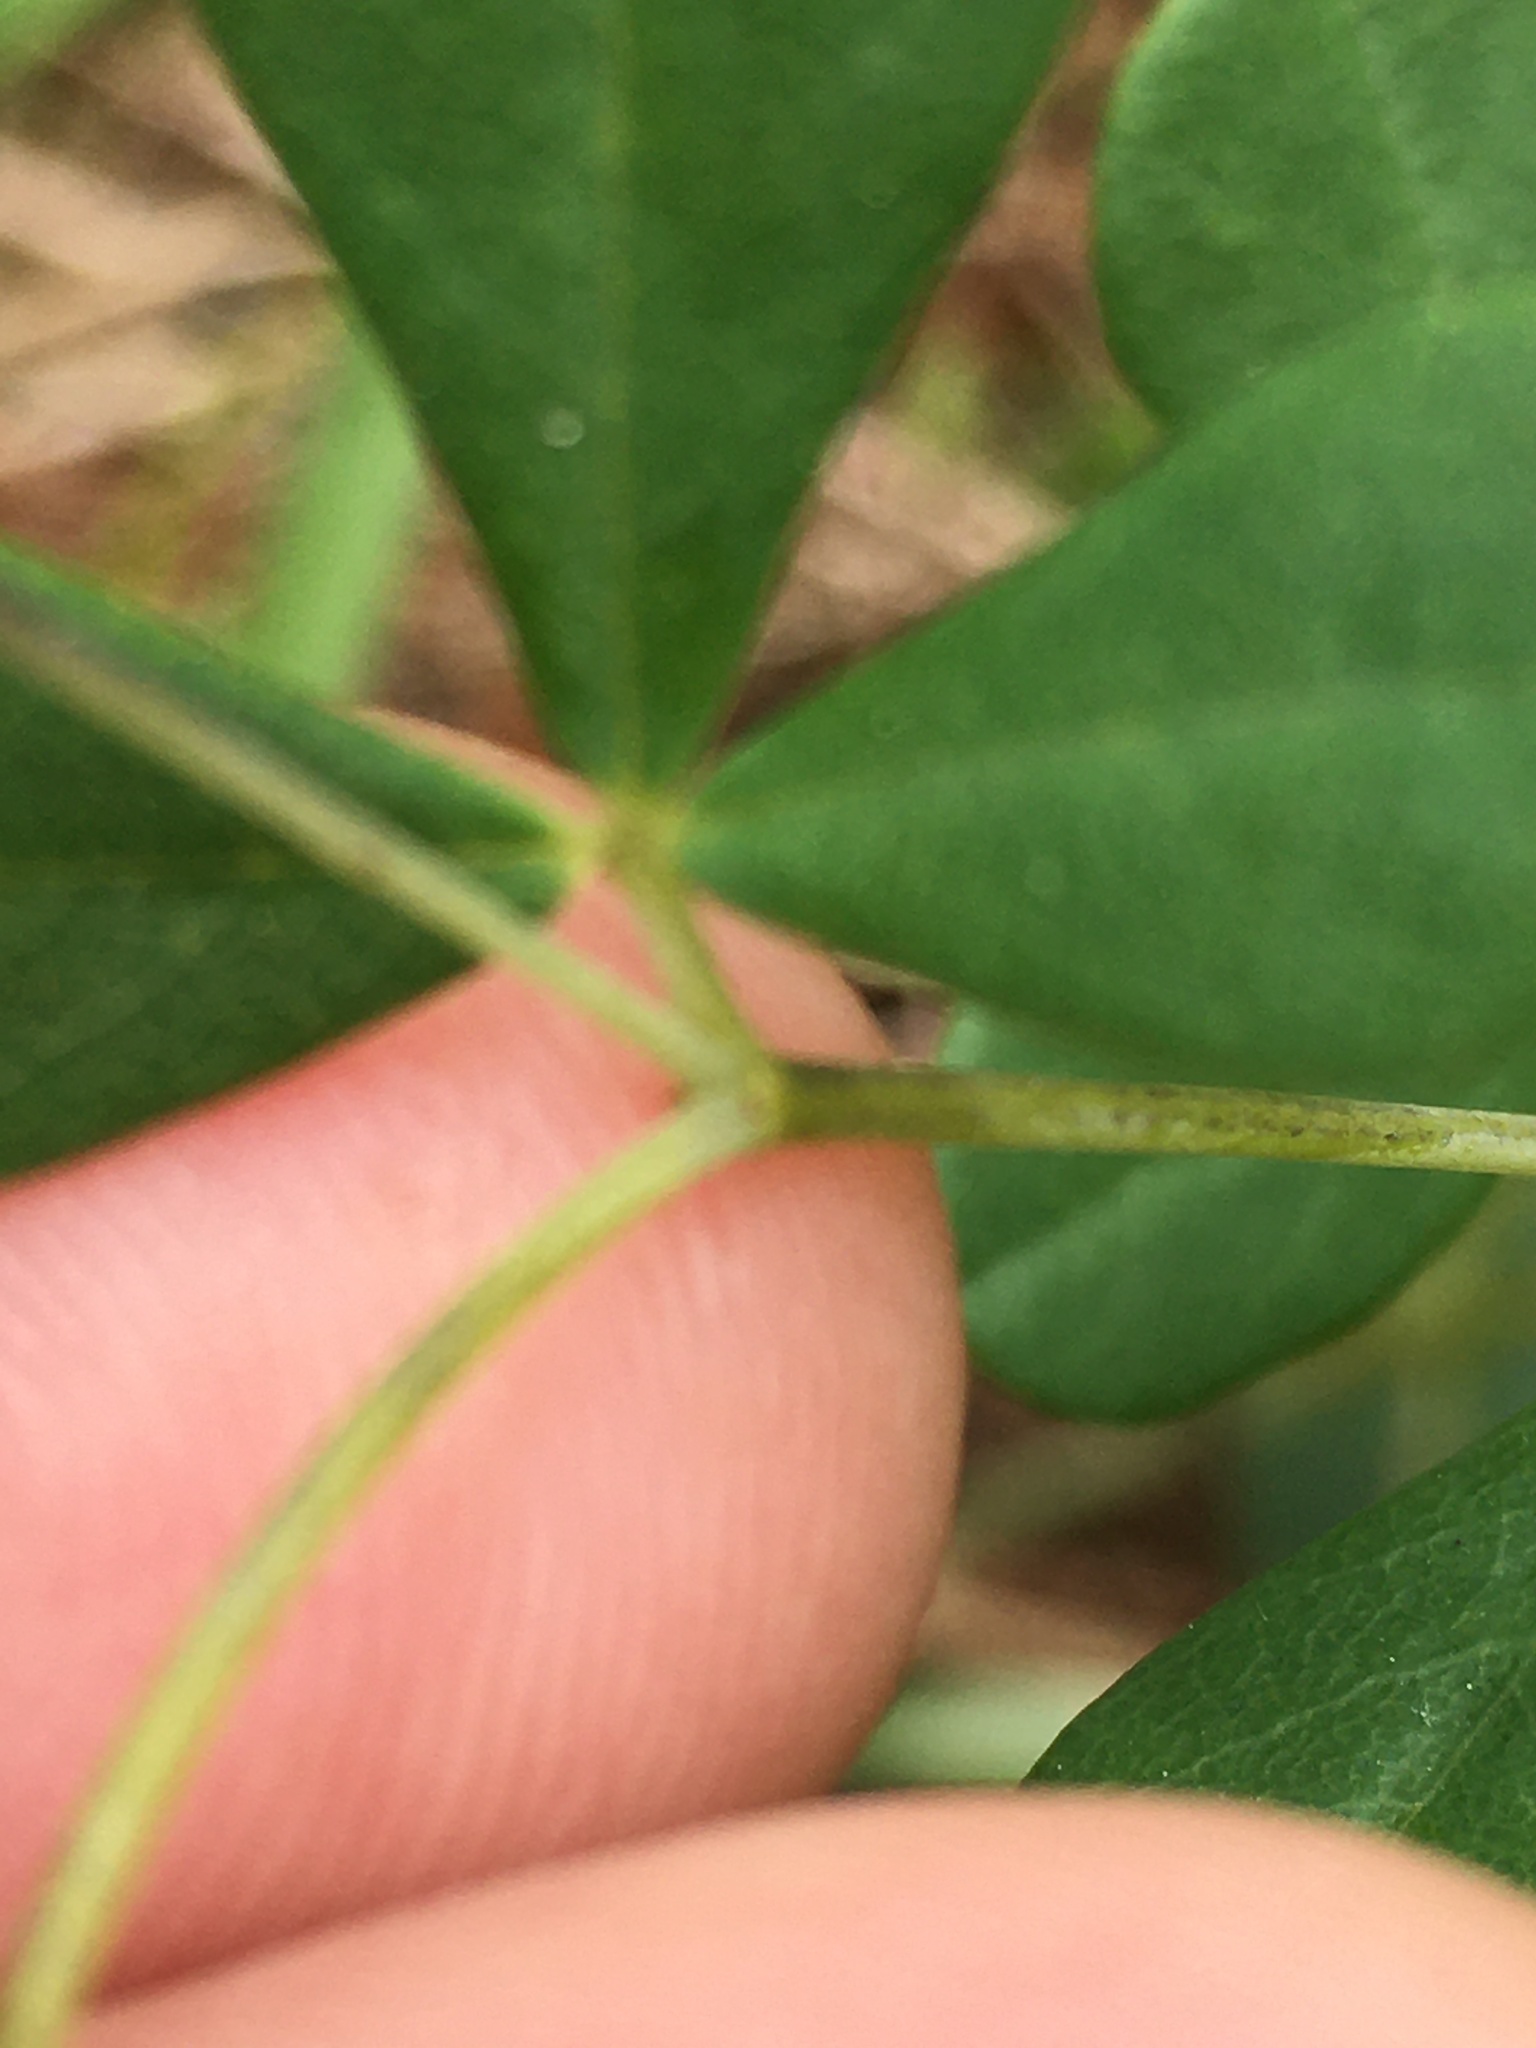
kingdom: Plantae
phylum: Tracheophyta
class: Magnoliopsida
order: Fabales
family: Fabaceae
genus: Baptisia
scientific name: Baptisia tinctoria
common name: Wild indigo
